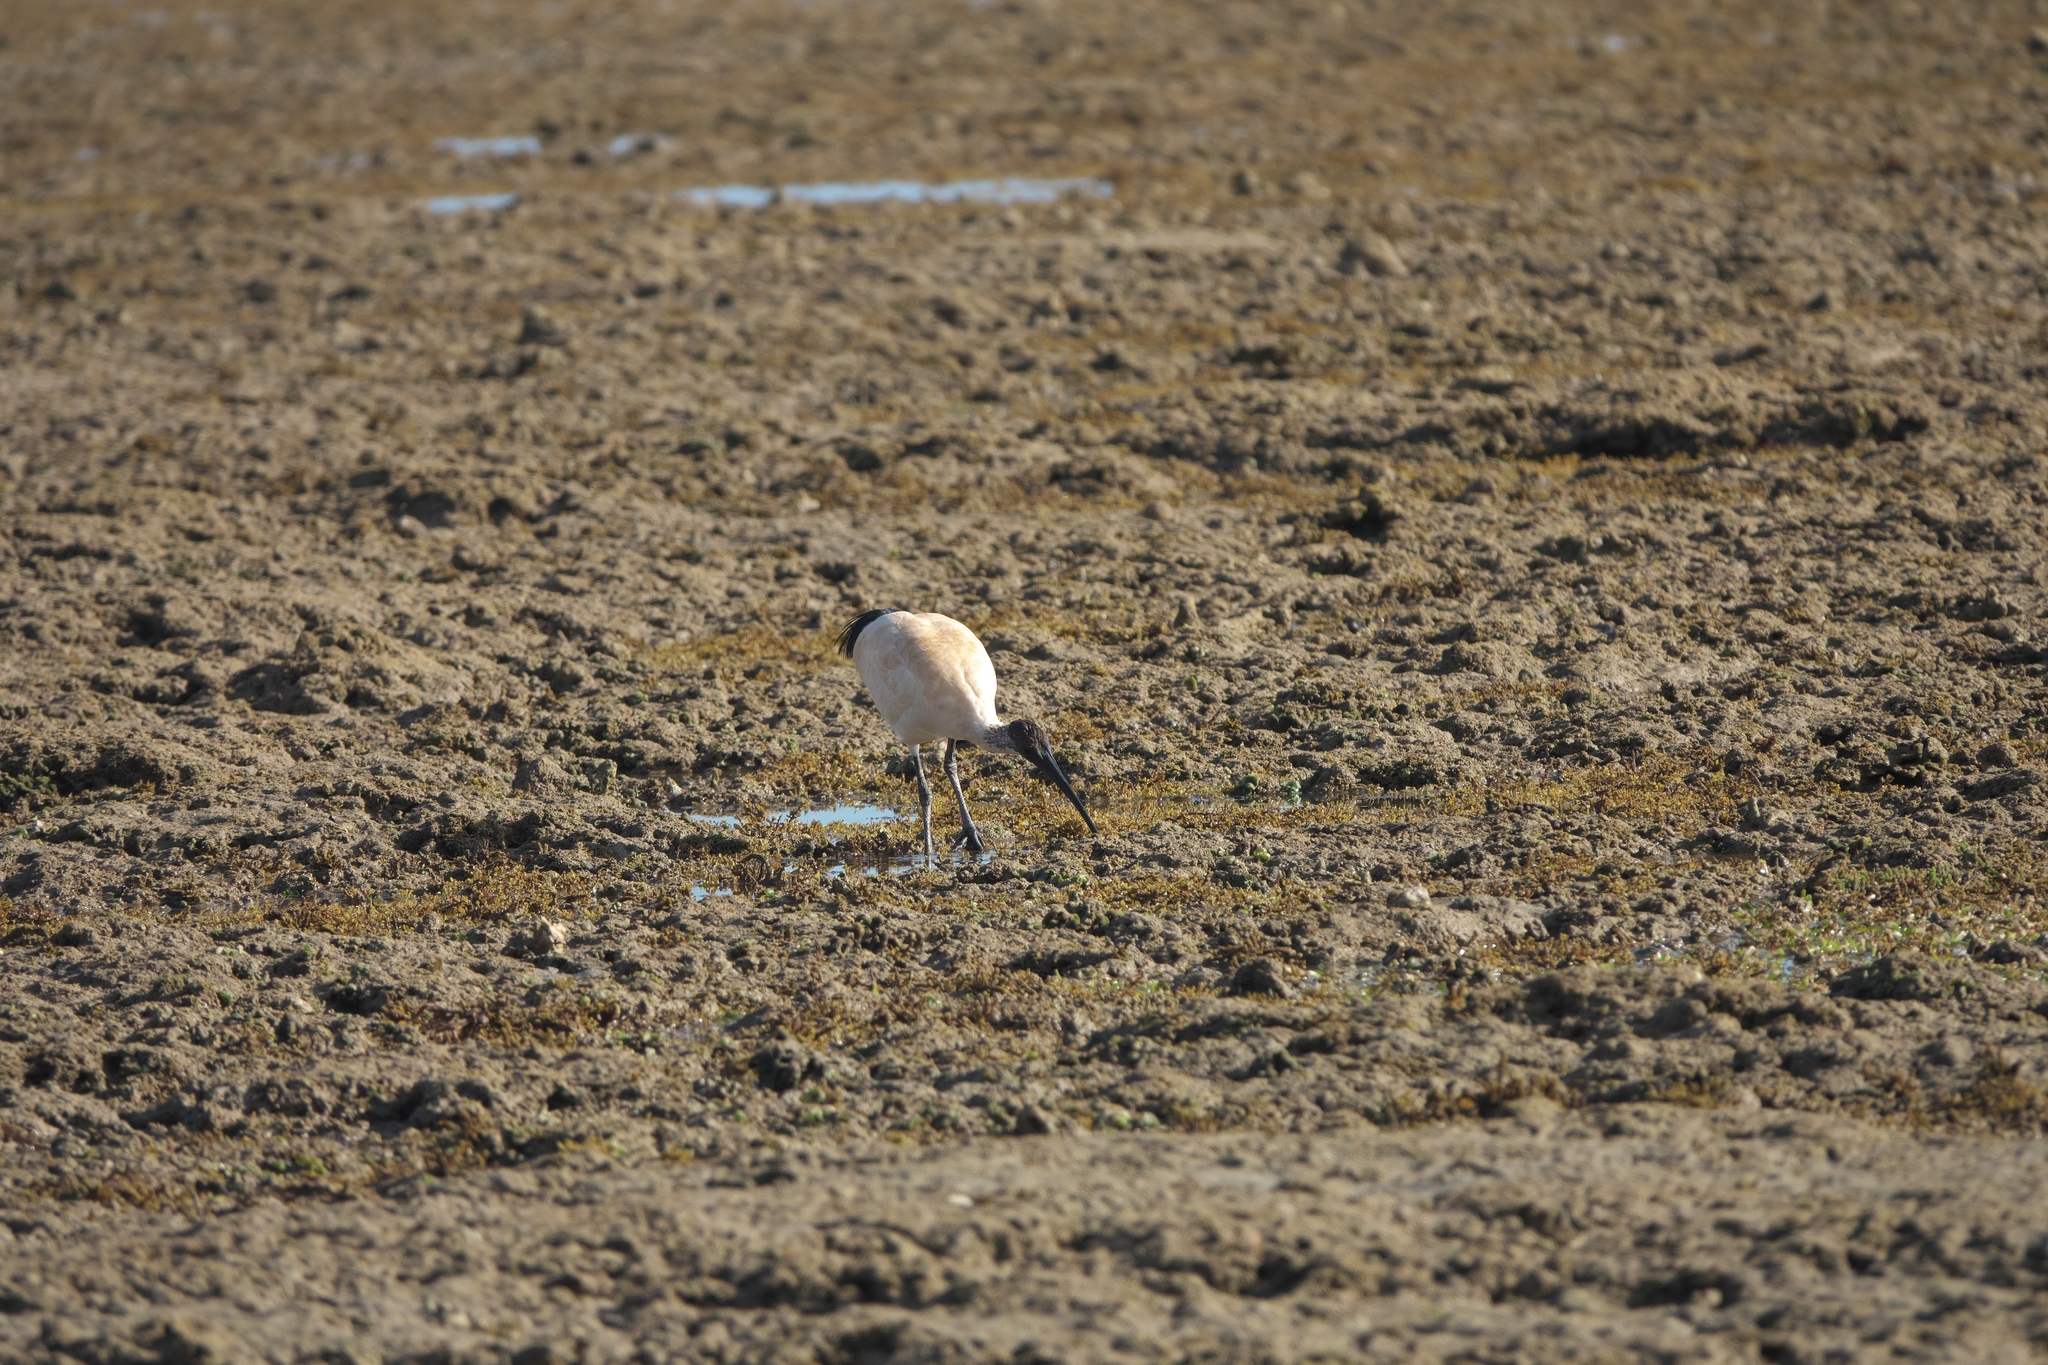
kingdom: Animalia
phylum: Chordata
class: Aves
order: Pelecaniformes
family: Threskiornithidae
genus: Threskiornis
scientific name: Threskiornis molucca
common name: Australian white ibis
